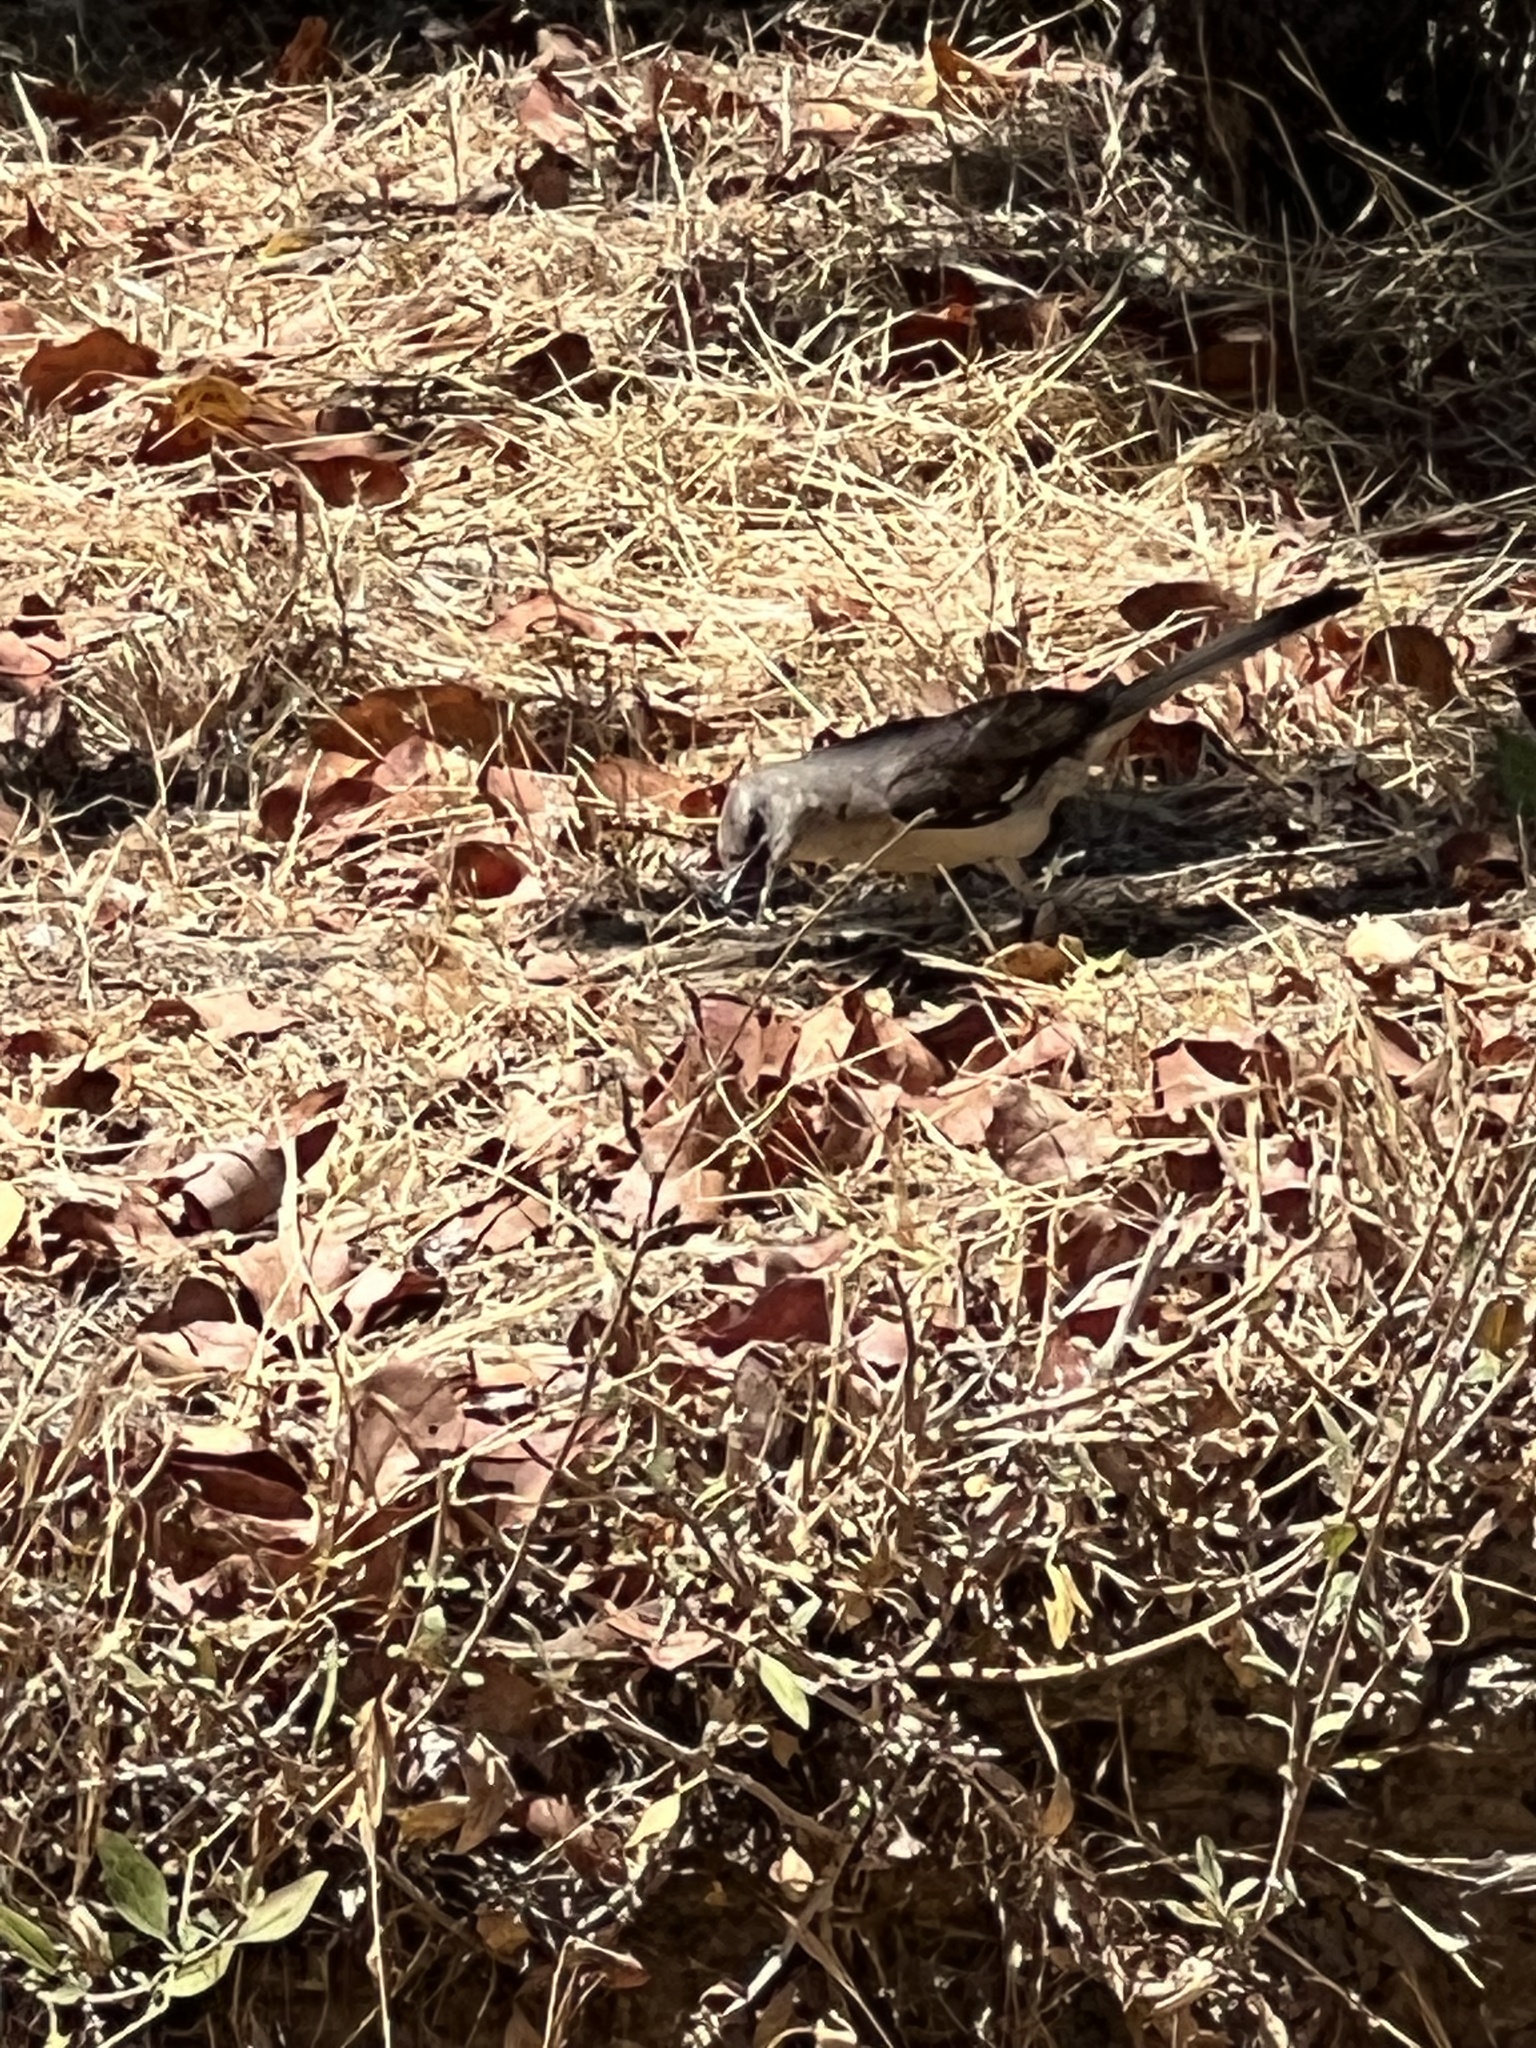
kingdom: Animalia
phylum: Chordata
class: Aves
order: Passeriformes
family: Mimidae
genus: Mimus
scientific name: Mimus polyglottos
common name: Northern mockingbird
